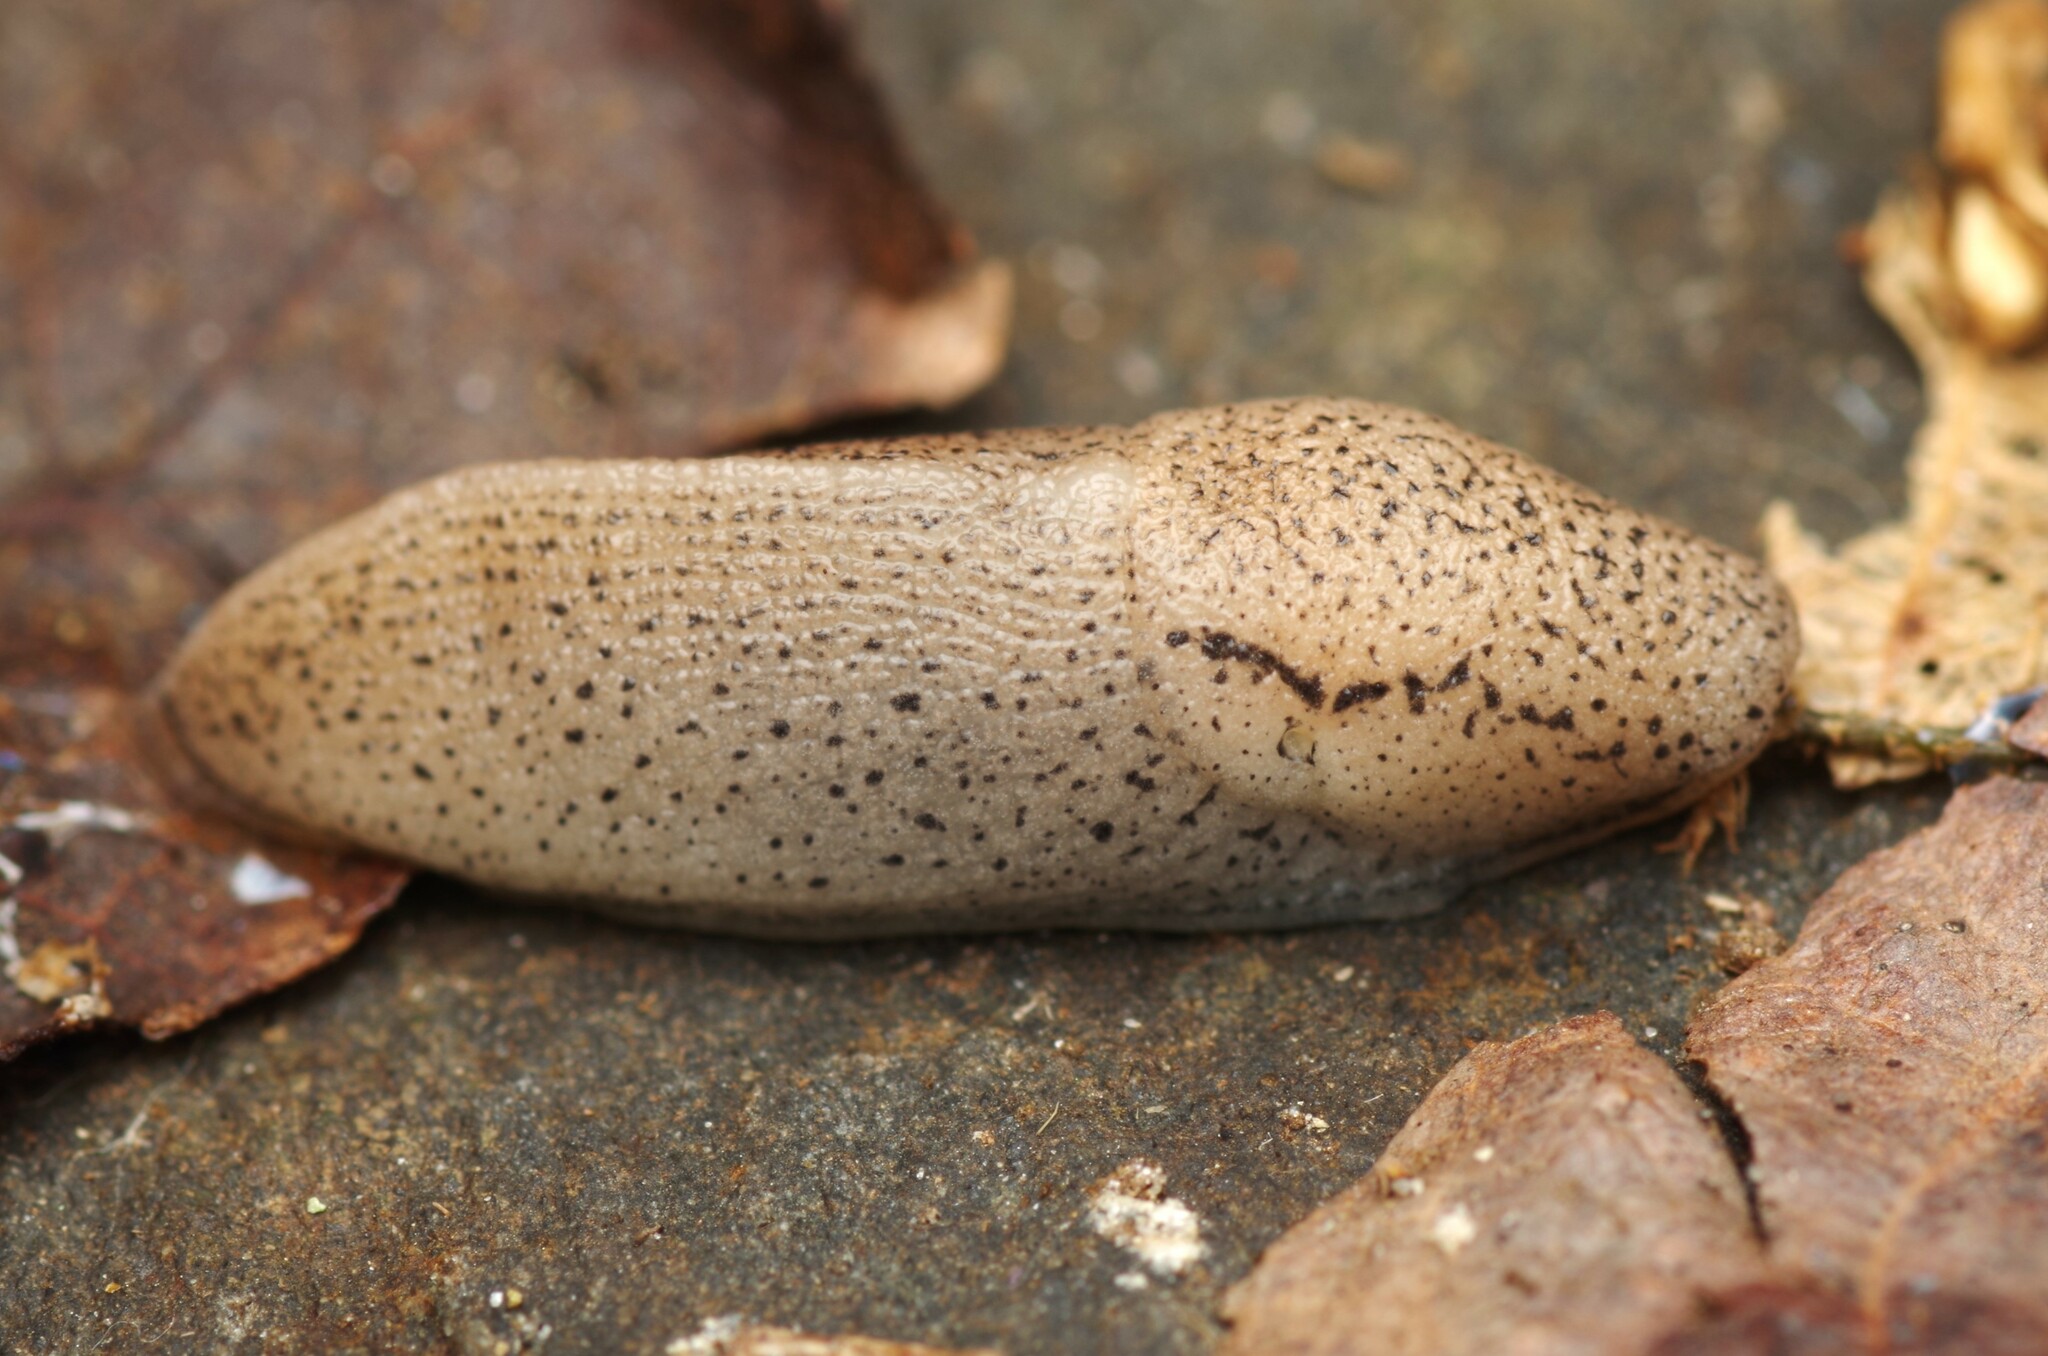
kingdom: Animalia
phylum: Mollusca
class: Gastropoda
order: Stylommatophora
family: Milacidae
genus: Tandonia
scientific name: Tandonia rustica
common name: Bulb-eating slug
